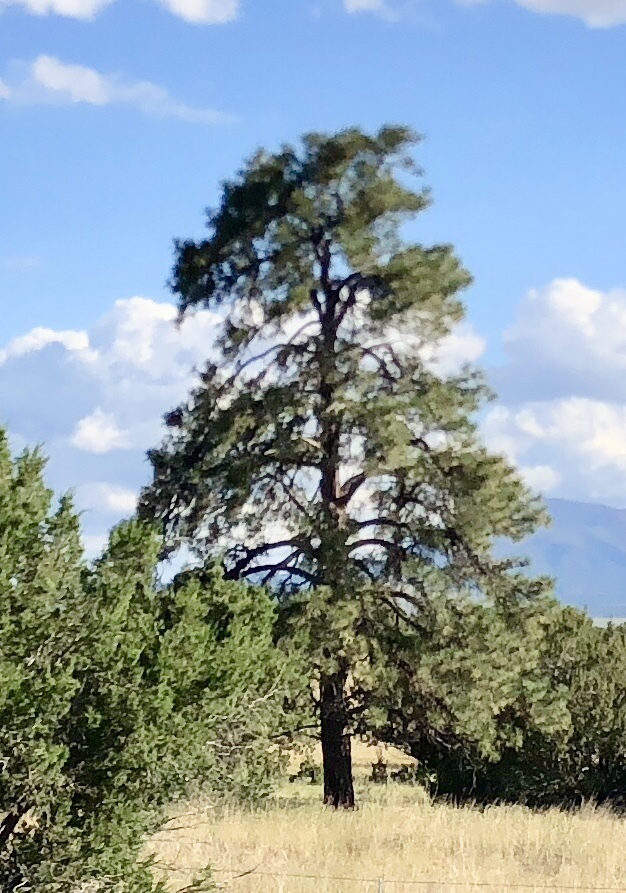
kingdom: Plantae
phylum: Tracheophyta
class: Pinopsida
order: Pinales
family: Pinaceae
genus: Pinus
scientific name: Pinus ponderosa
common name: Western yellow-pine
